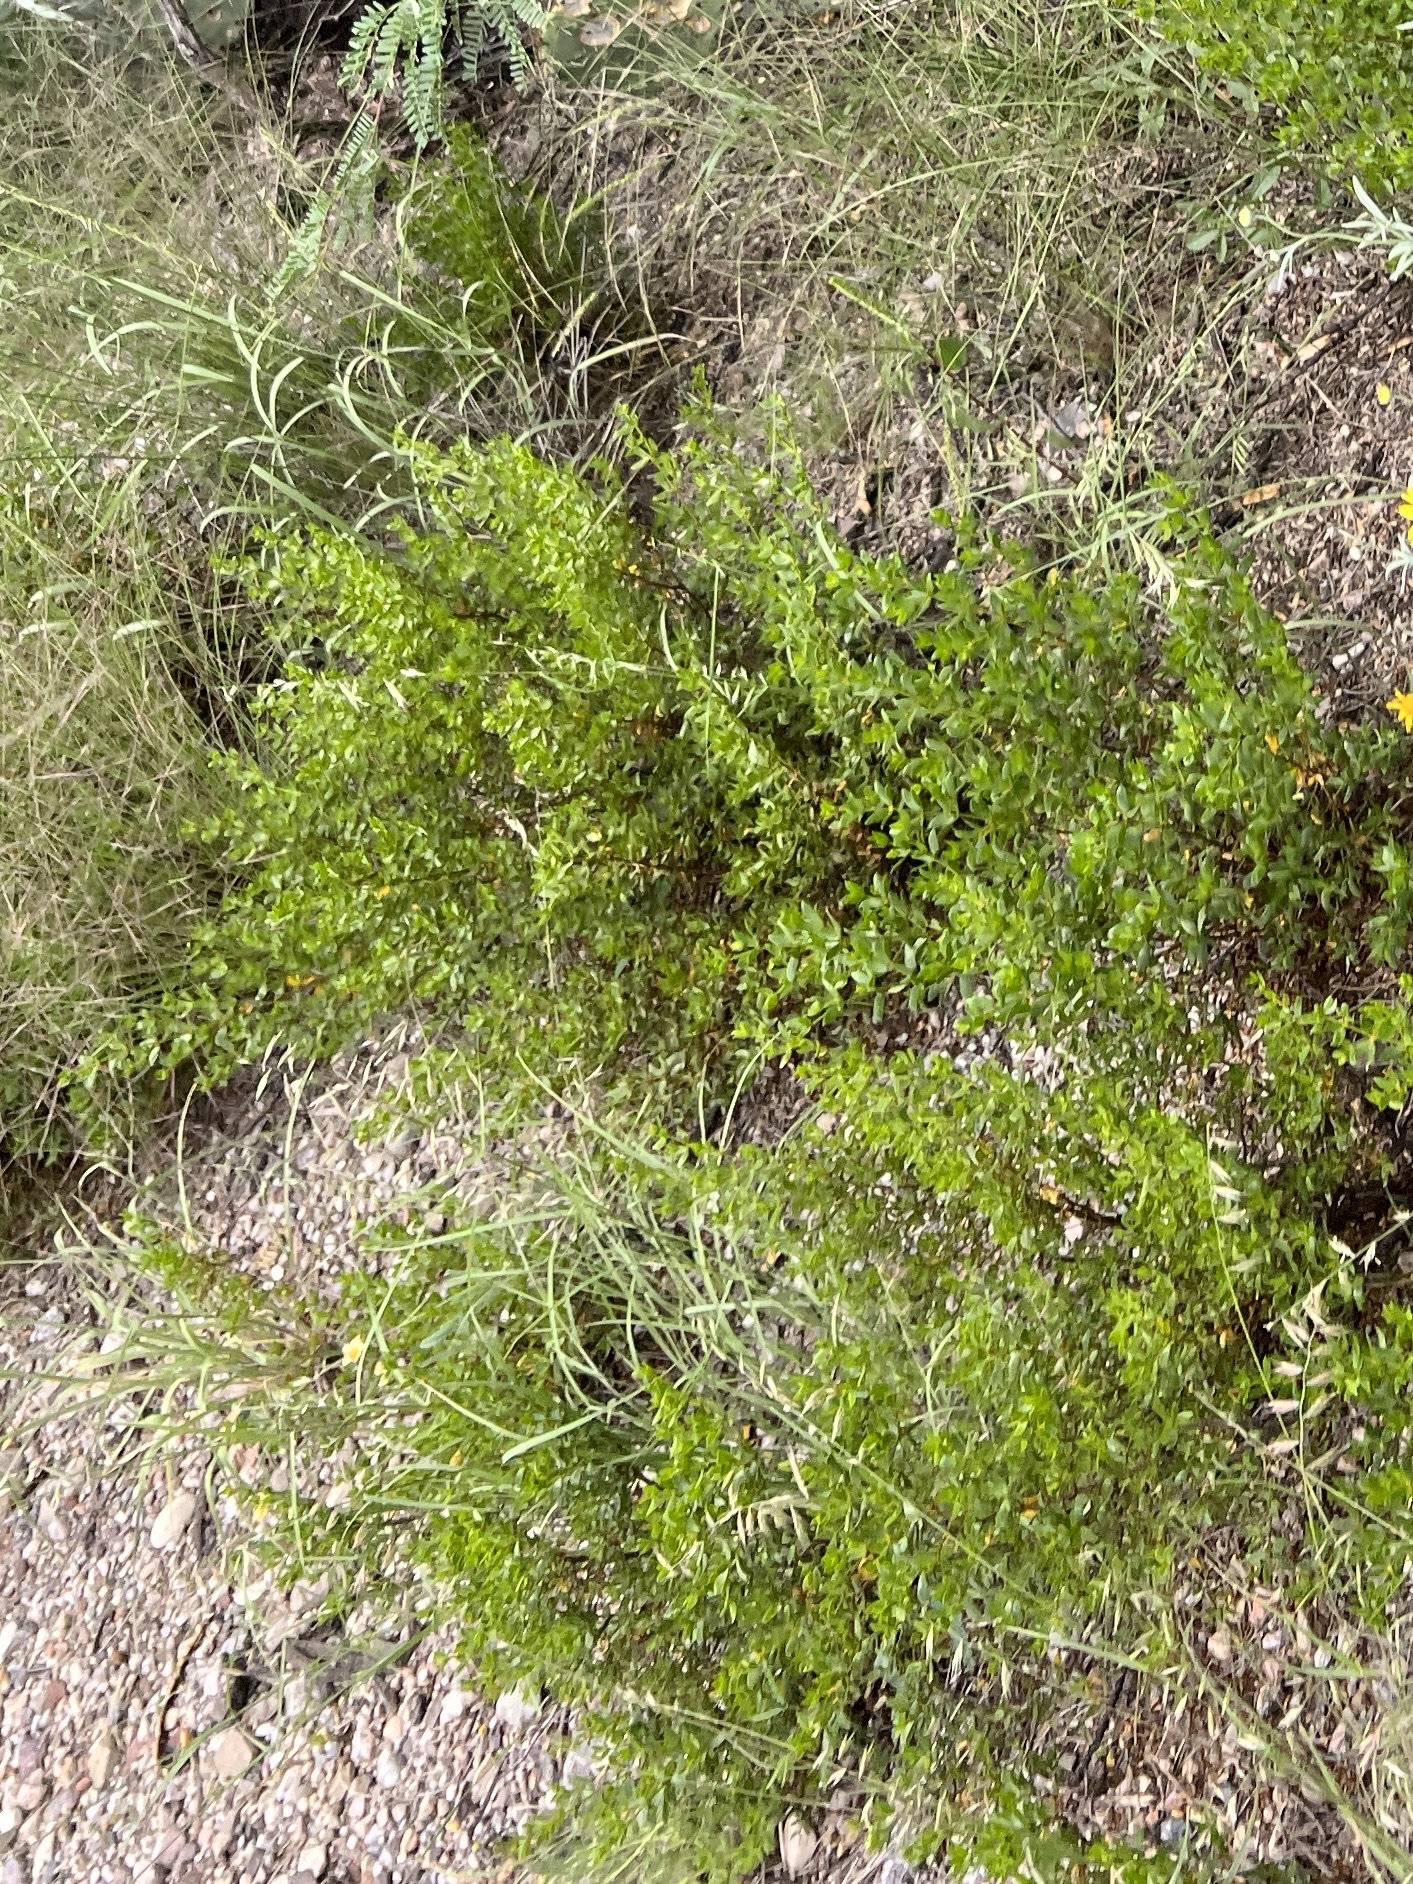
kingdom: Plantae
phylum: Tracheophyta
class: Magnoliopsida
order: Zygophyllales
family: Zygophyllaceae
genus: Larrea
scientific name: Larrea tridentata
